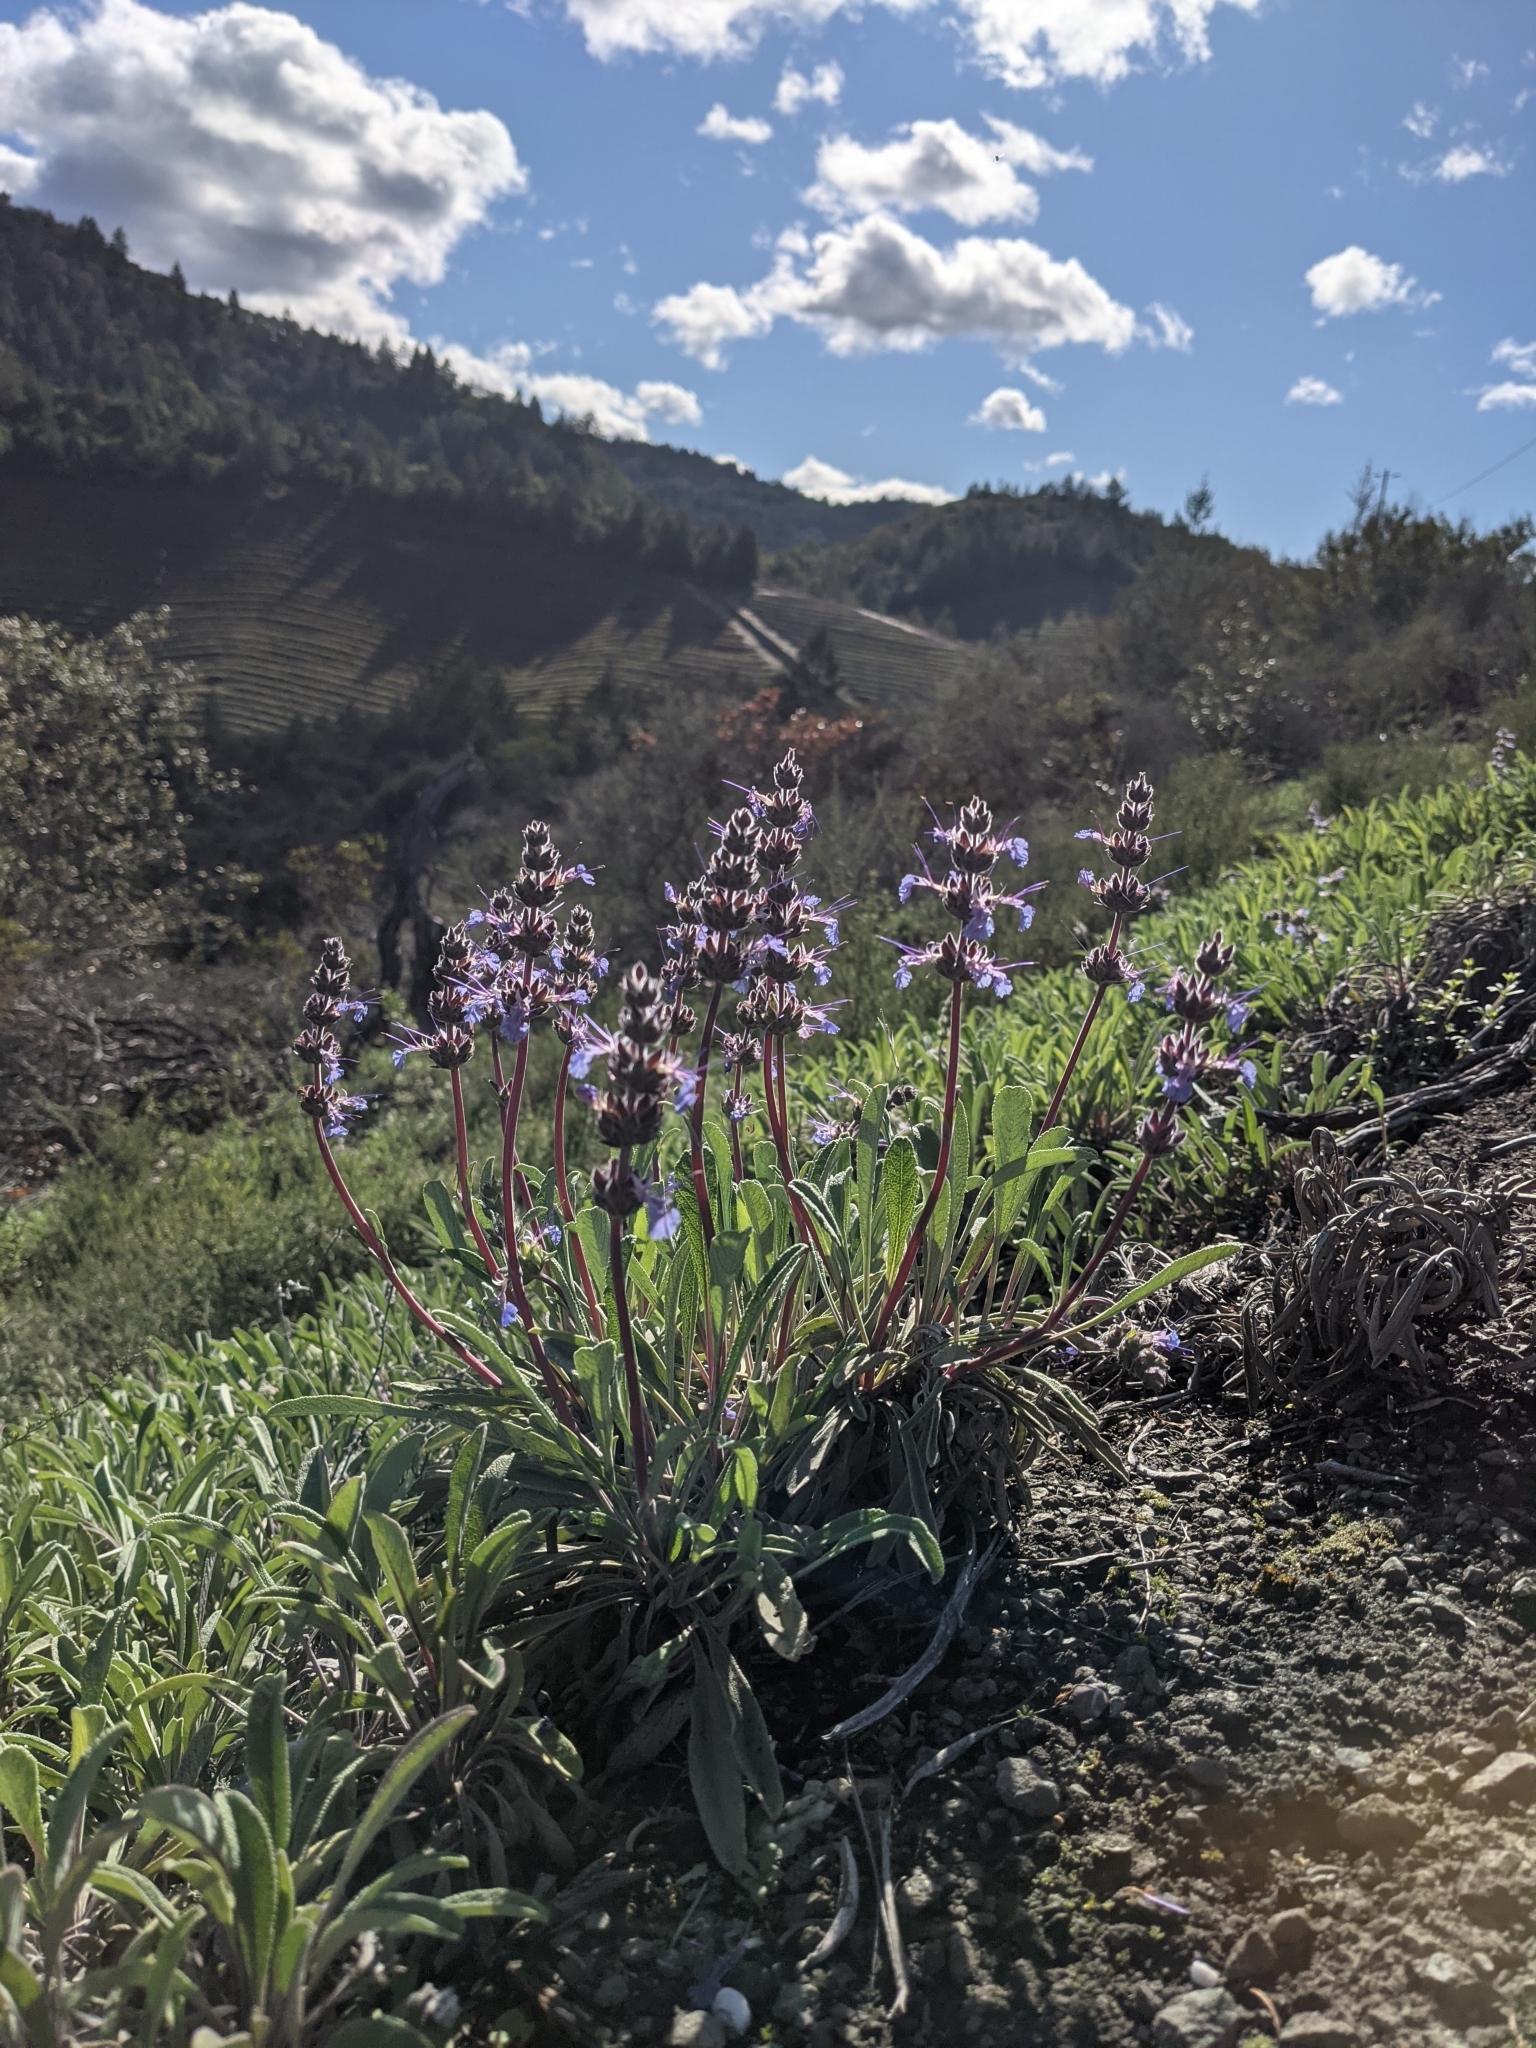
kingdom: Plantae
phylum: Tracheophyta
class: Magnoliopsida
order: Lamiales
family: Lamiaceae
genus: Salvia
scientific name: Salvia sonomensis
